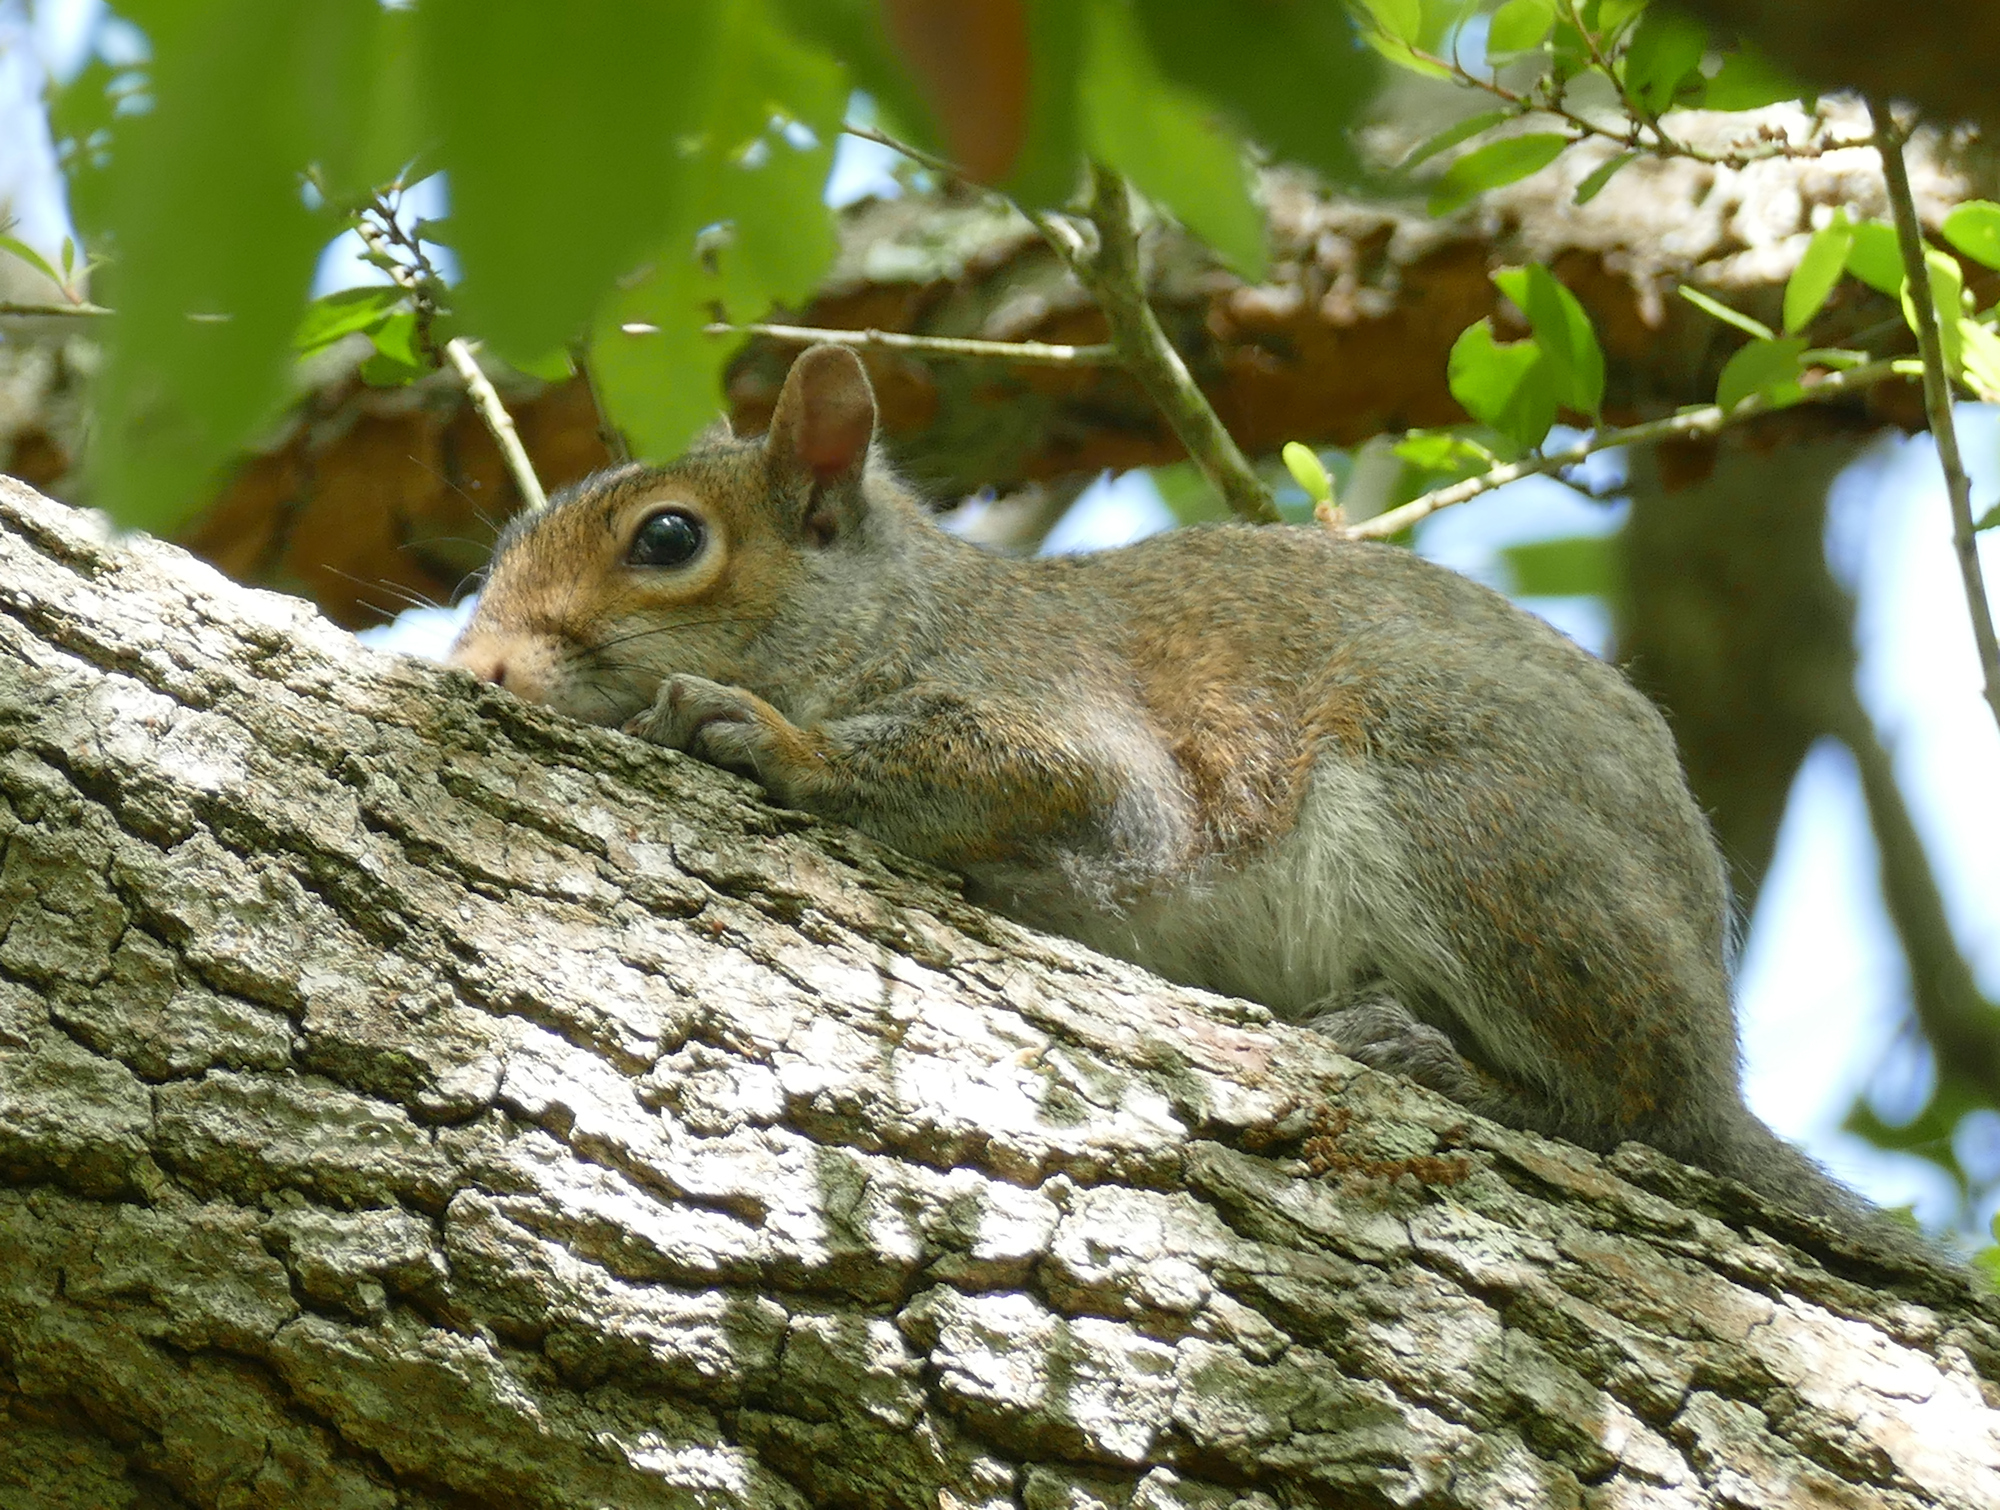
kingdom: Animalia
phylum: Chordata
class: Mammalia
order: Rodentia
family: Sciuridae
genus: Sciurus
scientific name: Sciurus carolinensis
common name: Eastern gray squirrel
